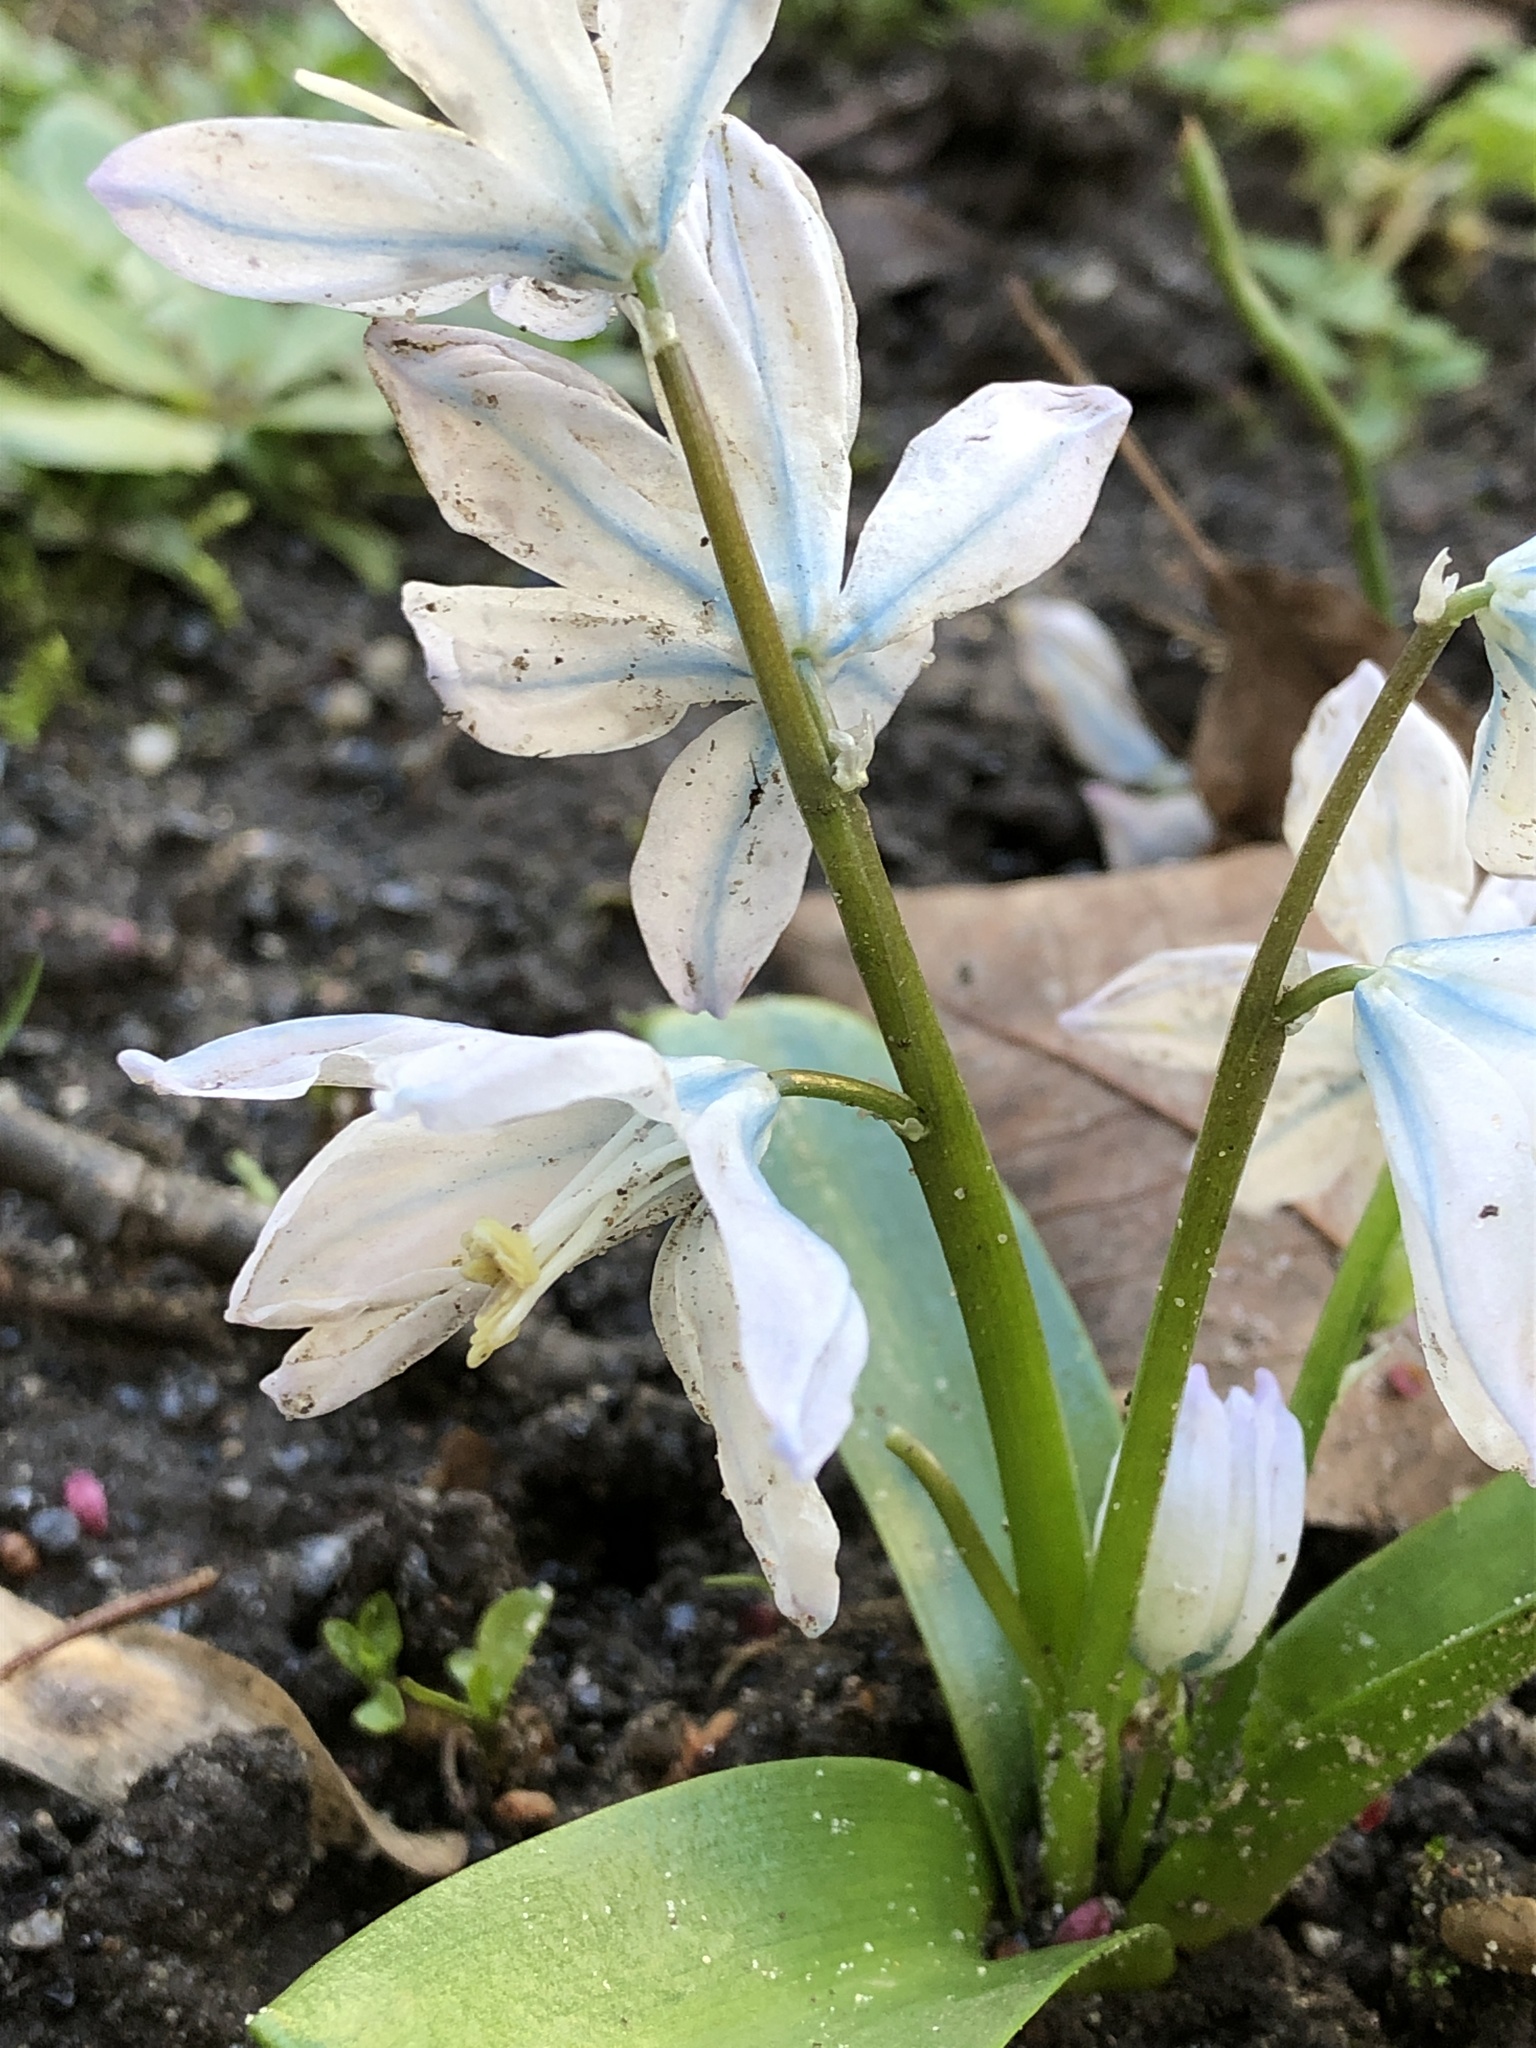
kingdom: Plantae
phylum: Tracheophyta
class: Liliopsida
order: Asparagales
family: Asparagaceae
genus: Scilla
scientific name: Scilla mischtschenkoana
